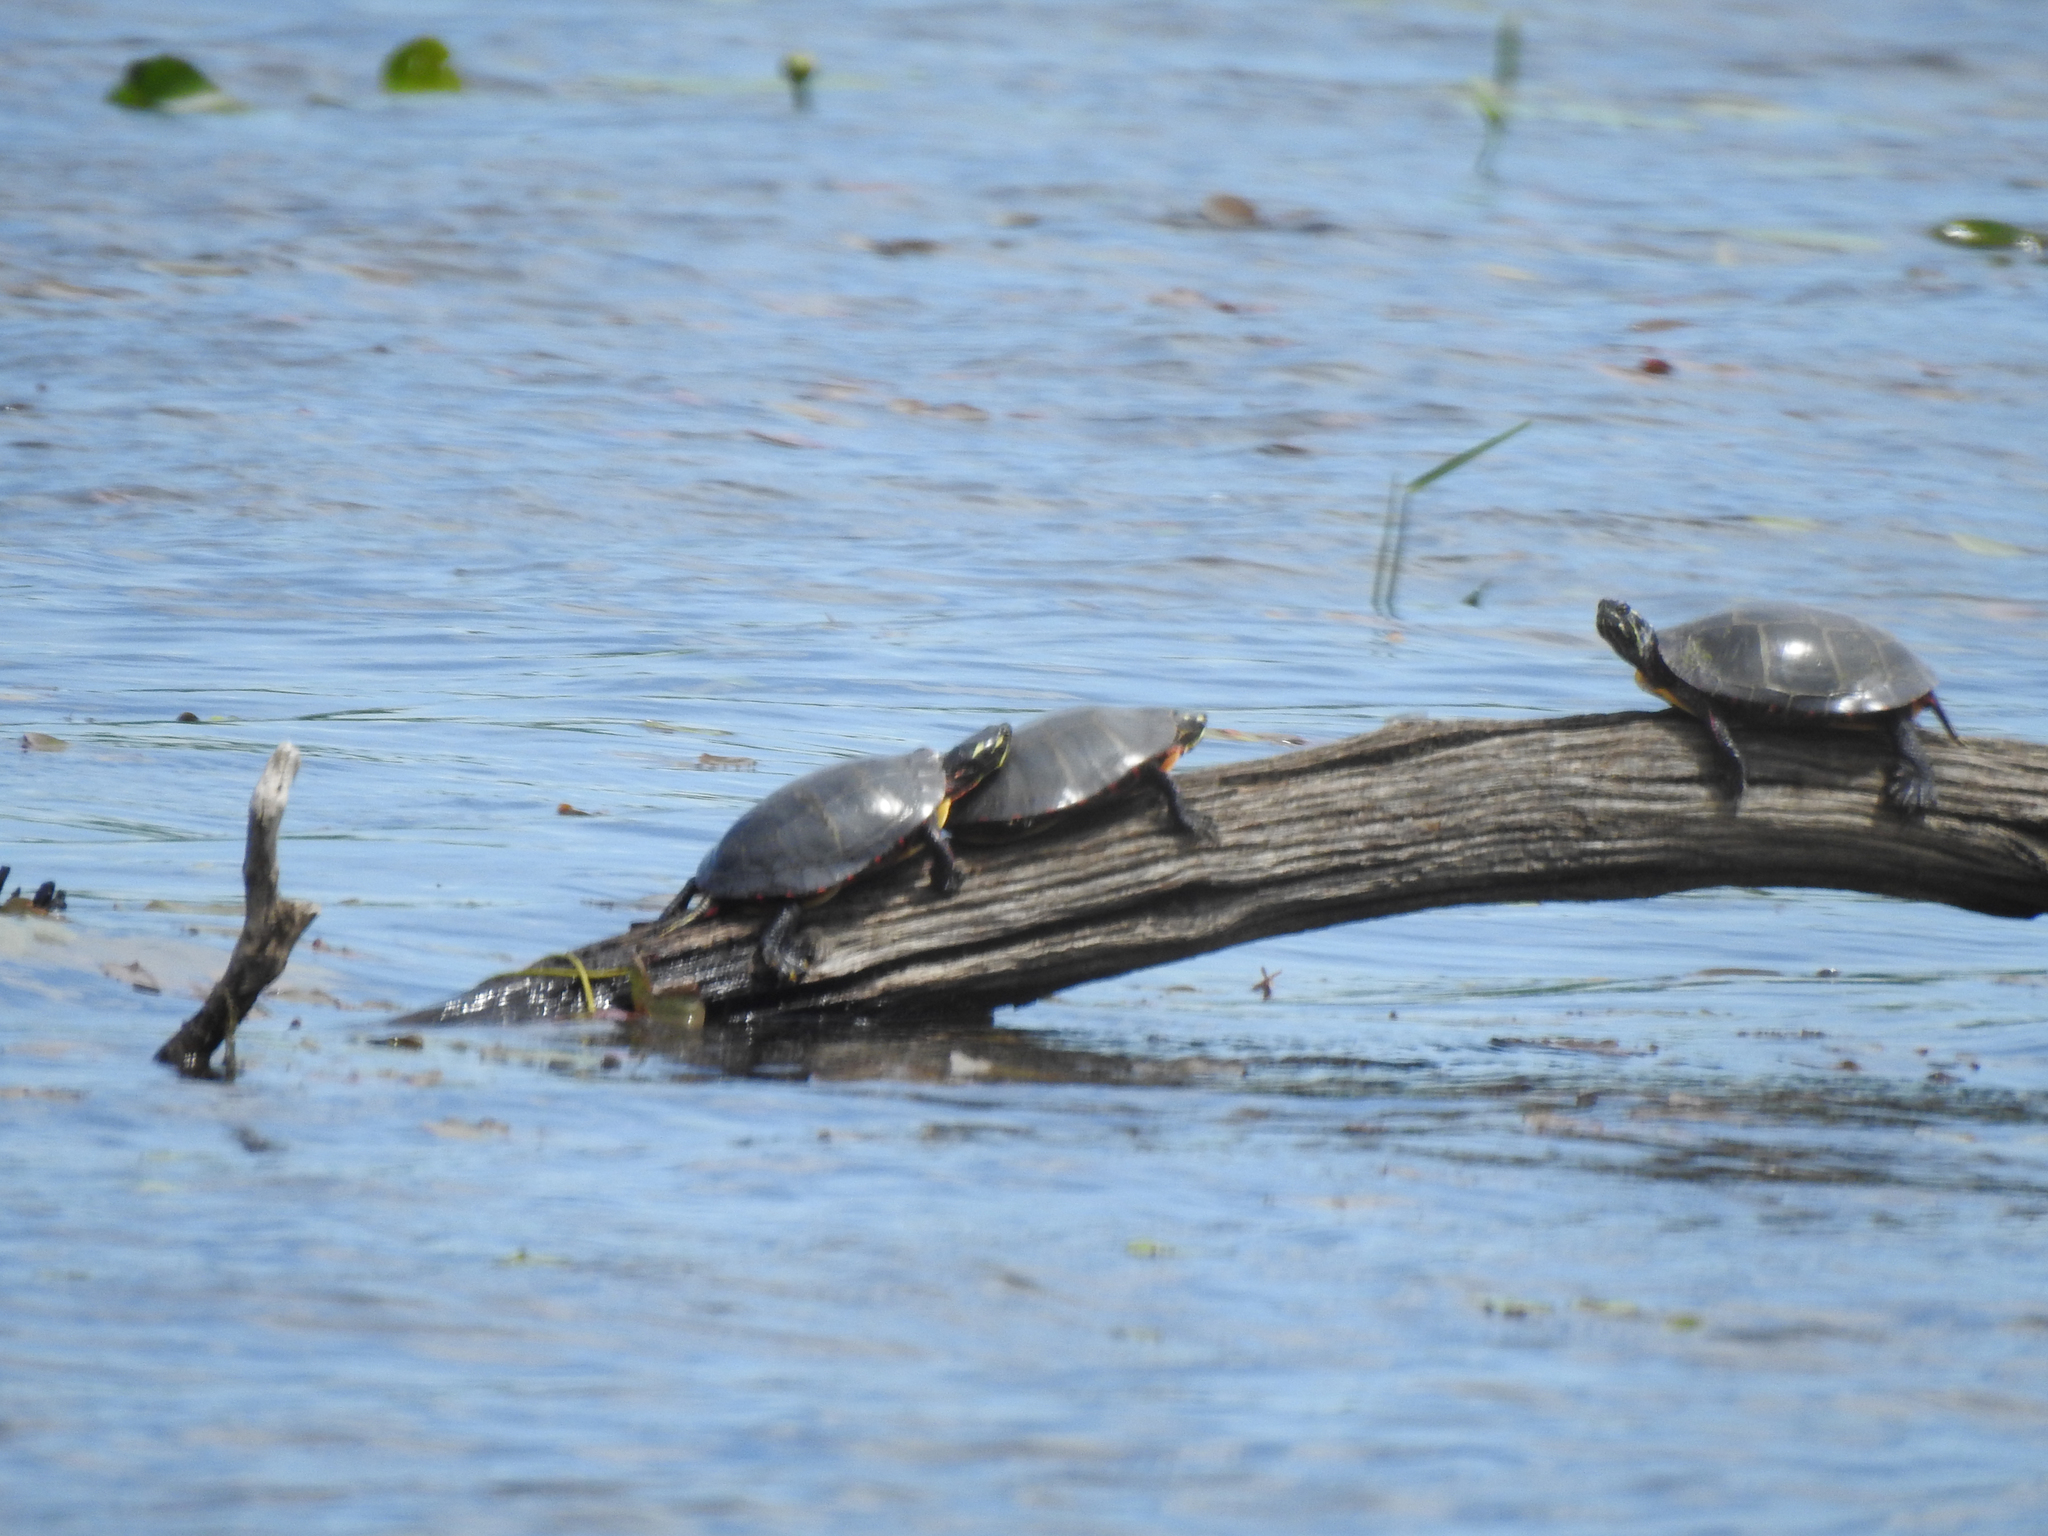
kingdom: Animalia
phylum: Chordata
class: Testudines
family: Emydidae
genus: Chrysemys
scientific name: Chrysemys picta
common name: Painted turtle
